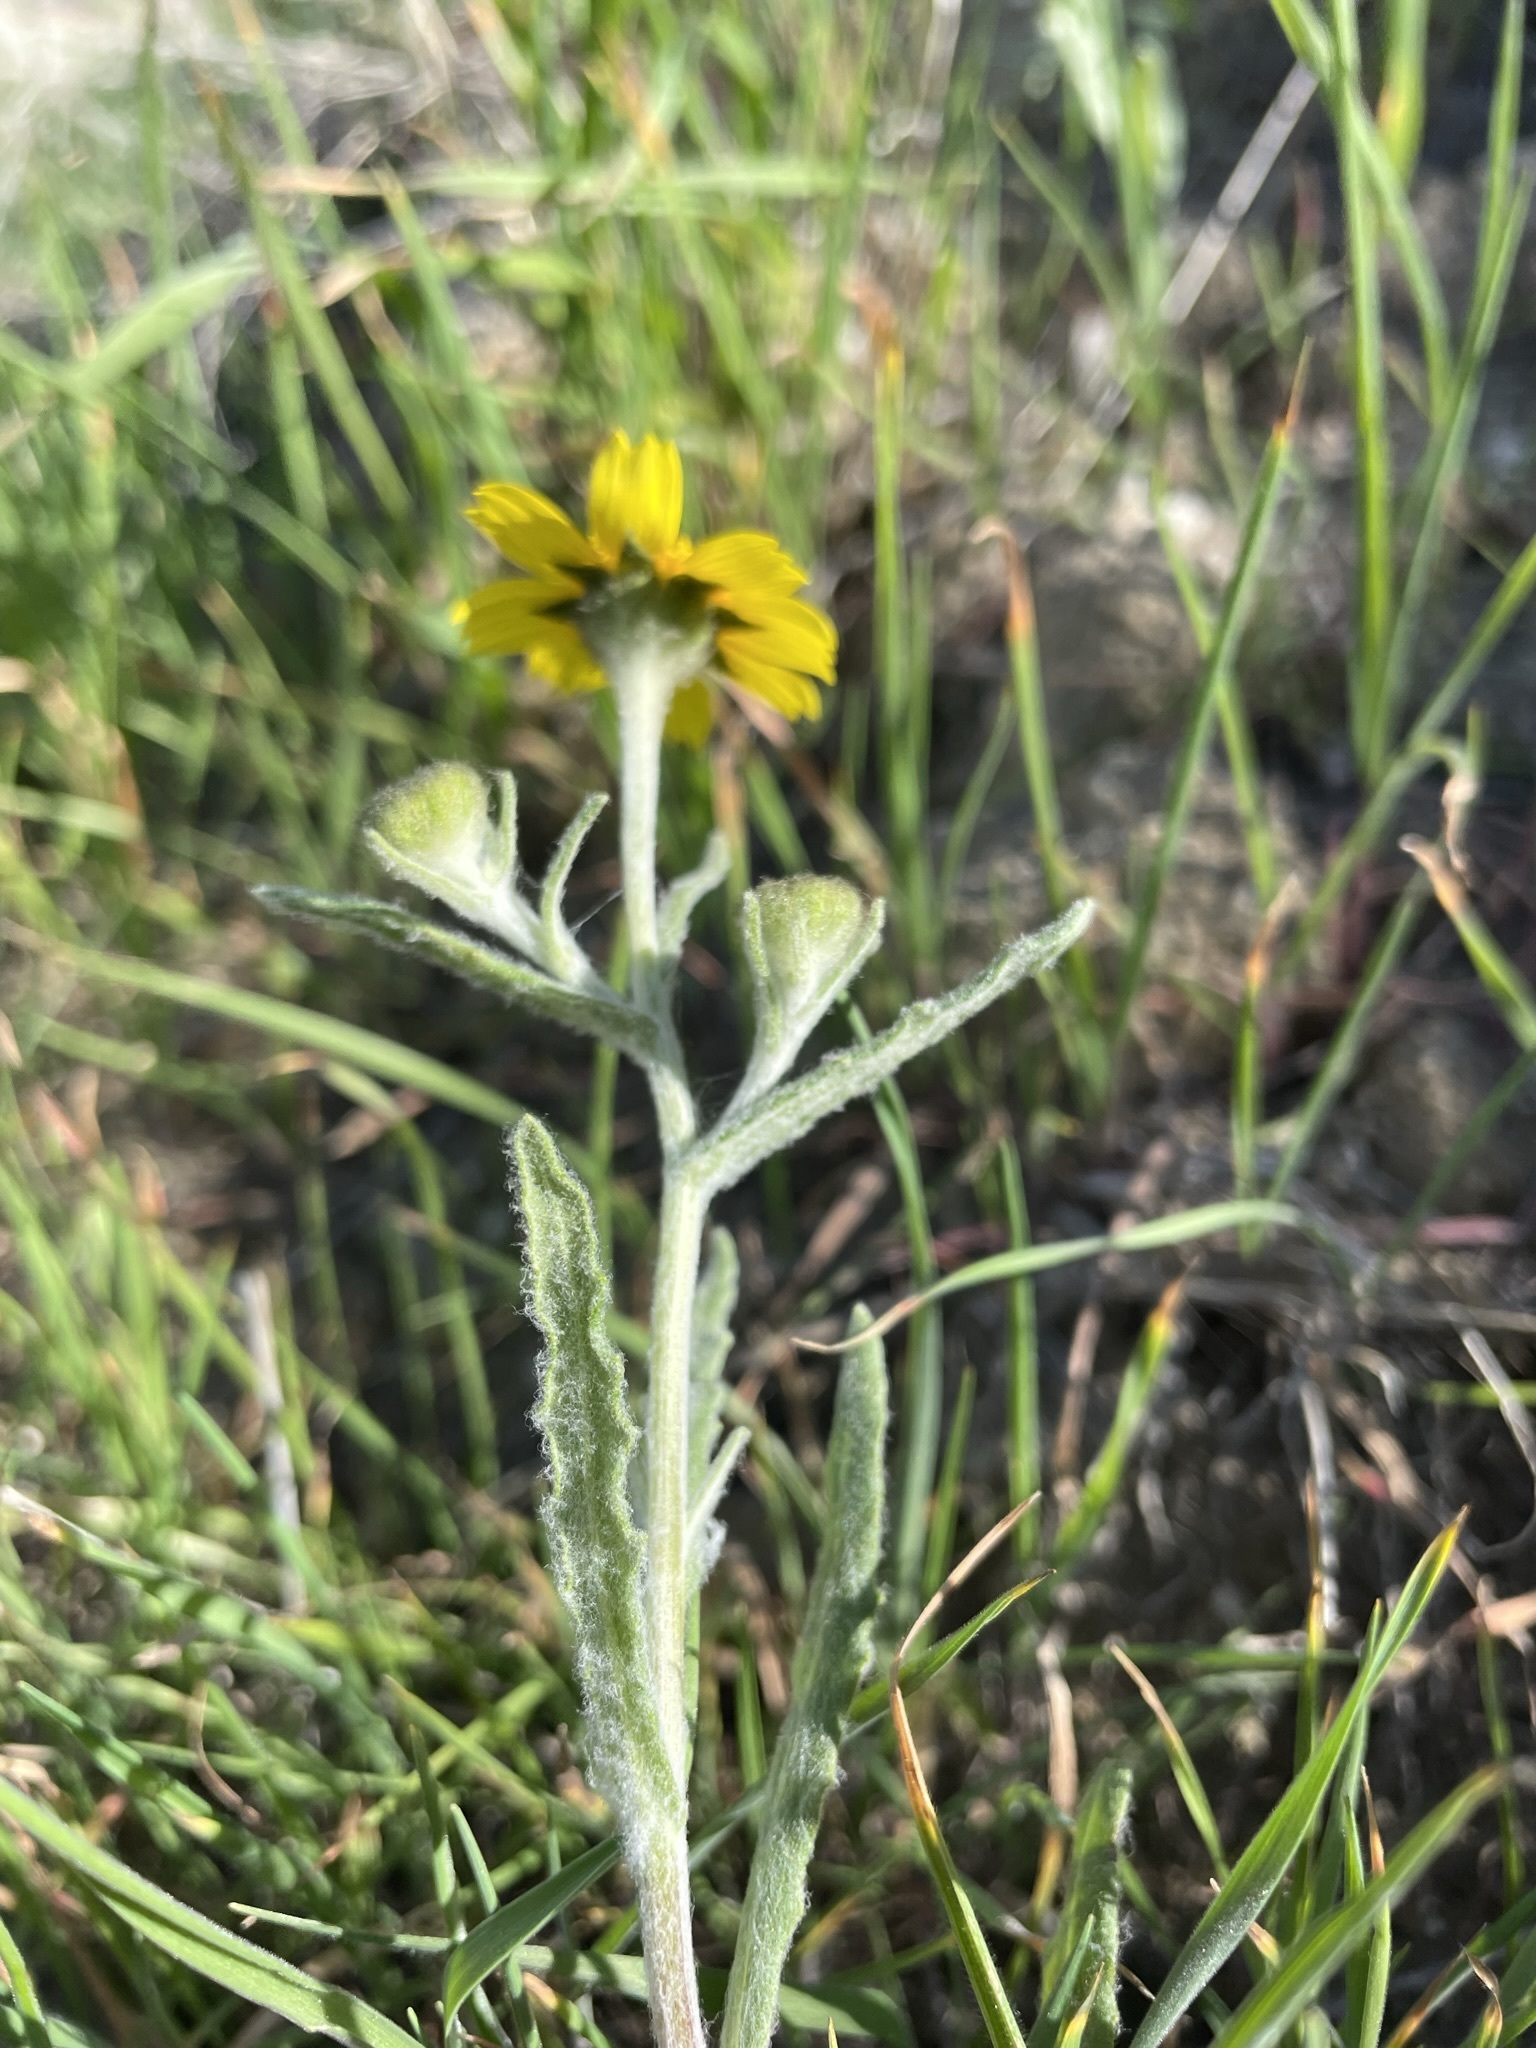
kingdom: Plantae
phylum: Tracheophyta
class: Magnoliopsida
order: Asterales
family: Asteraceae
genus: Monolopia
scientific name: Monolopia lanceolata
